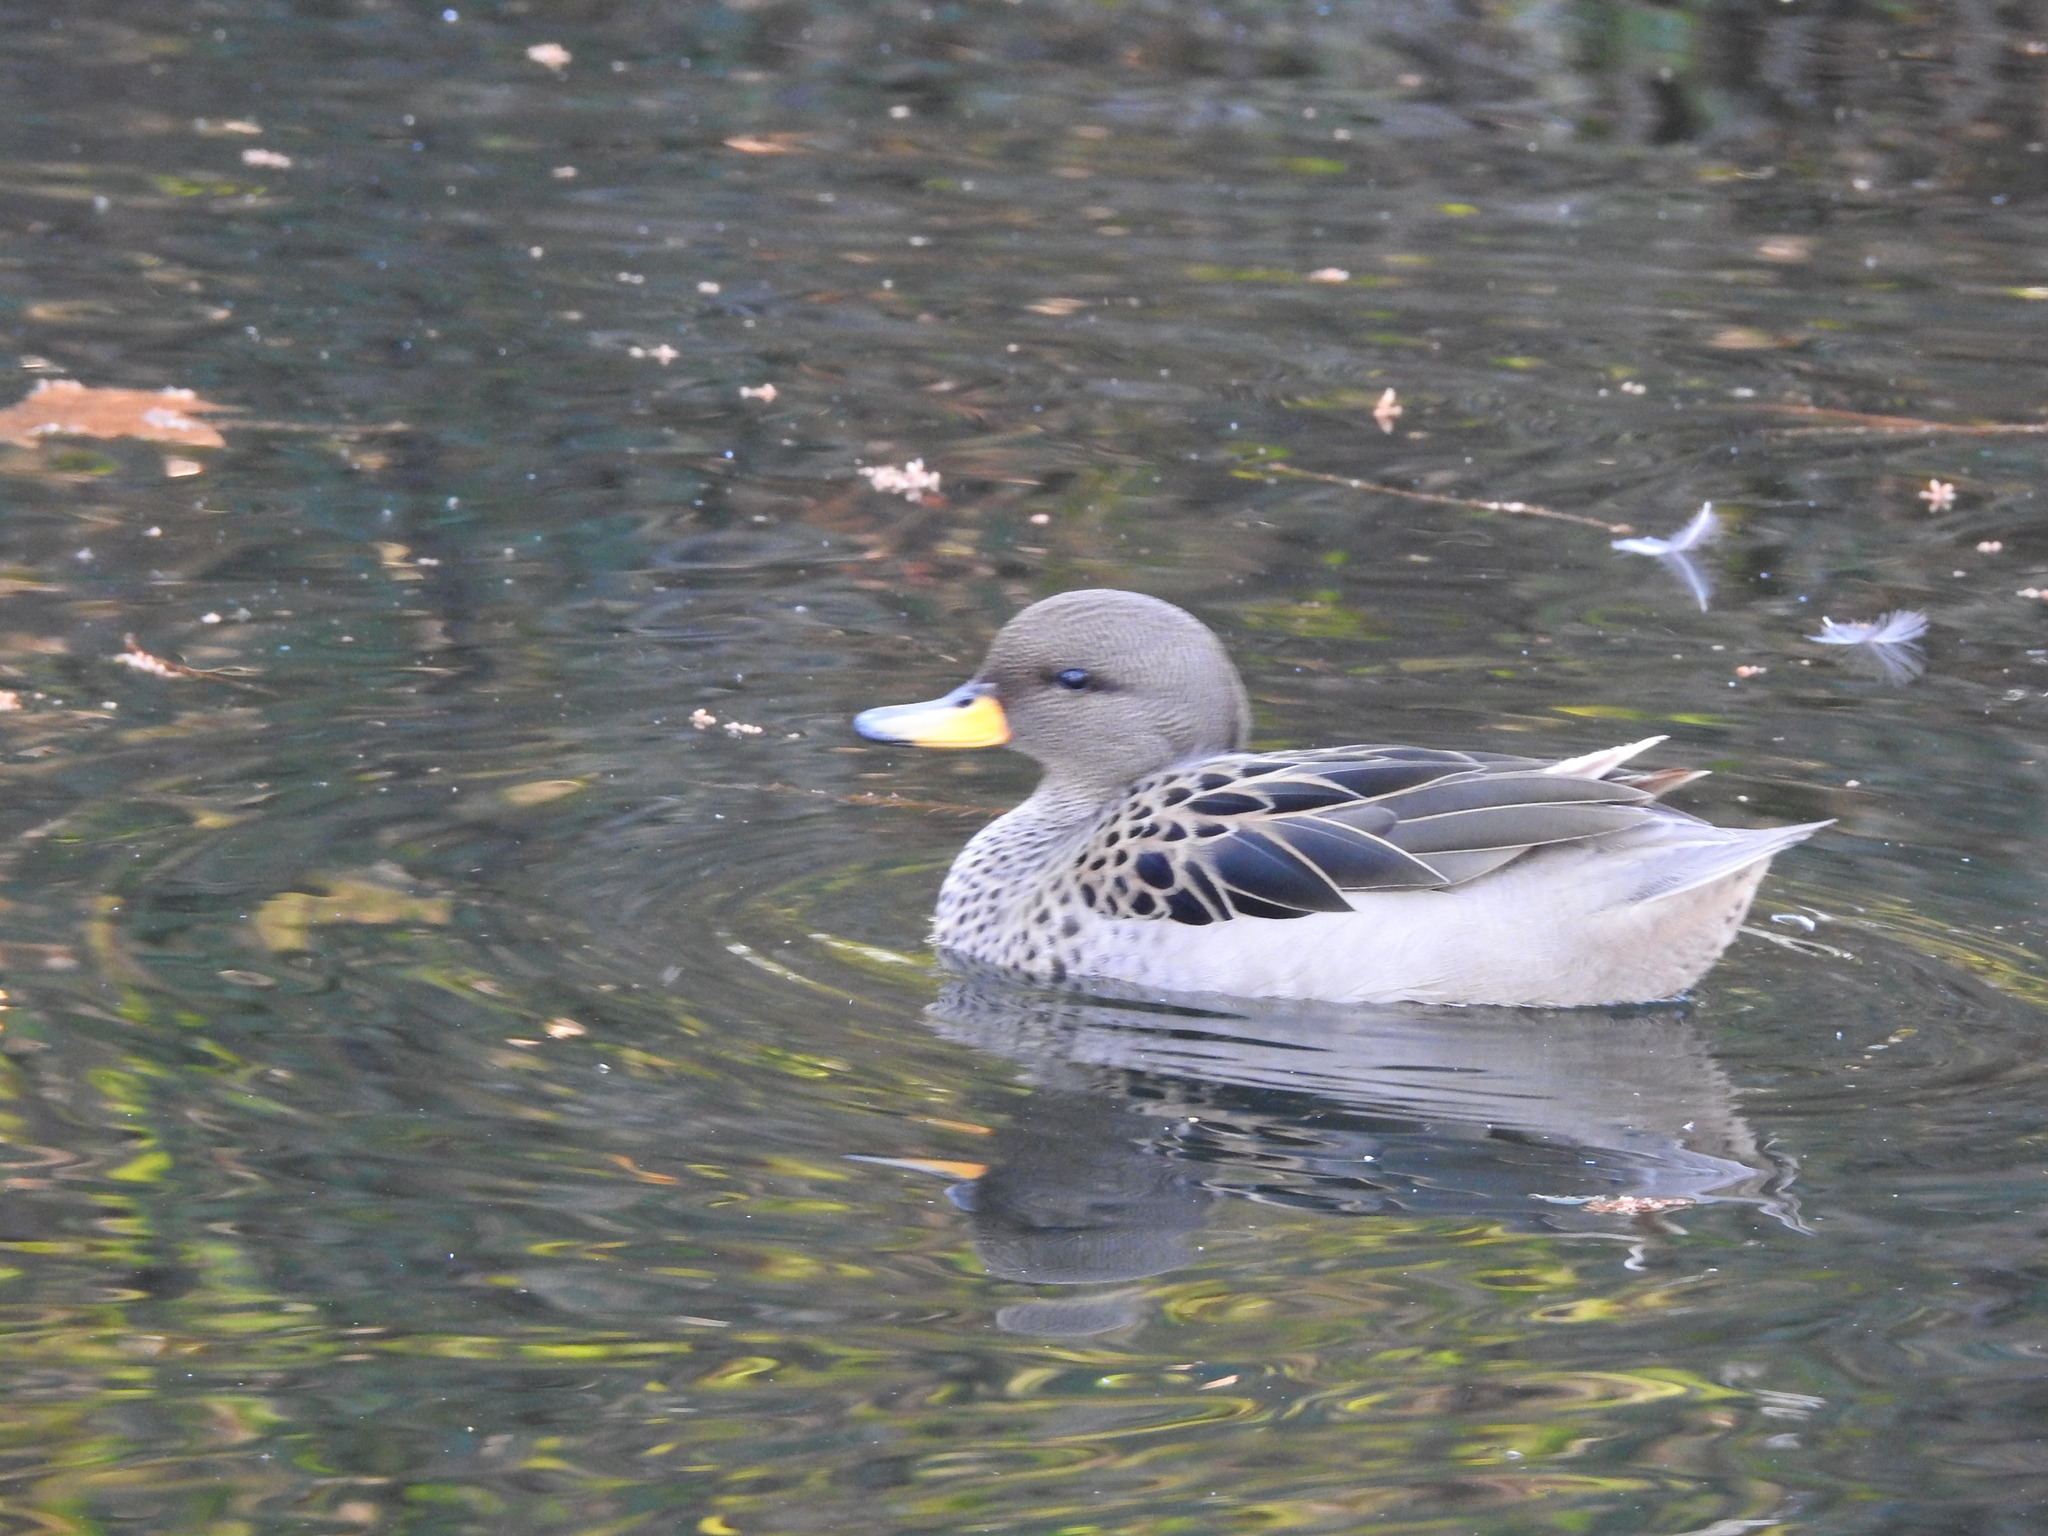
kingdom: Animalia
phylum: Chordata
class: Aves
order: Anseriformes
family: Anatidae
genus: Anas
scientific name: Anas flavirostris
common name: Yellow-billed teal
